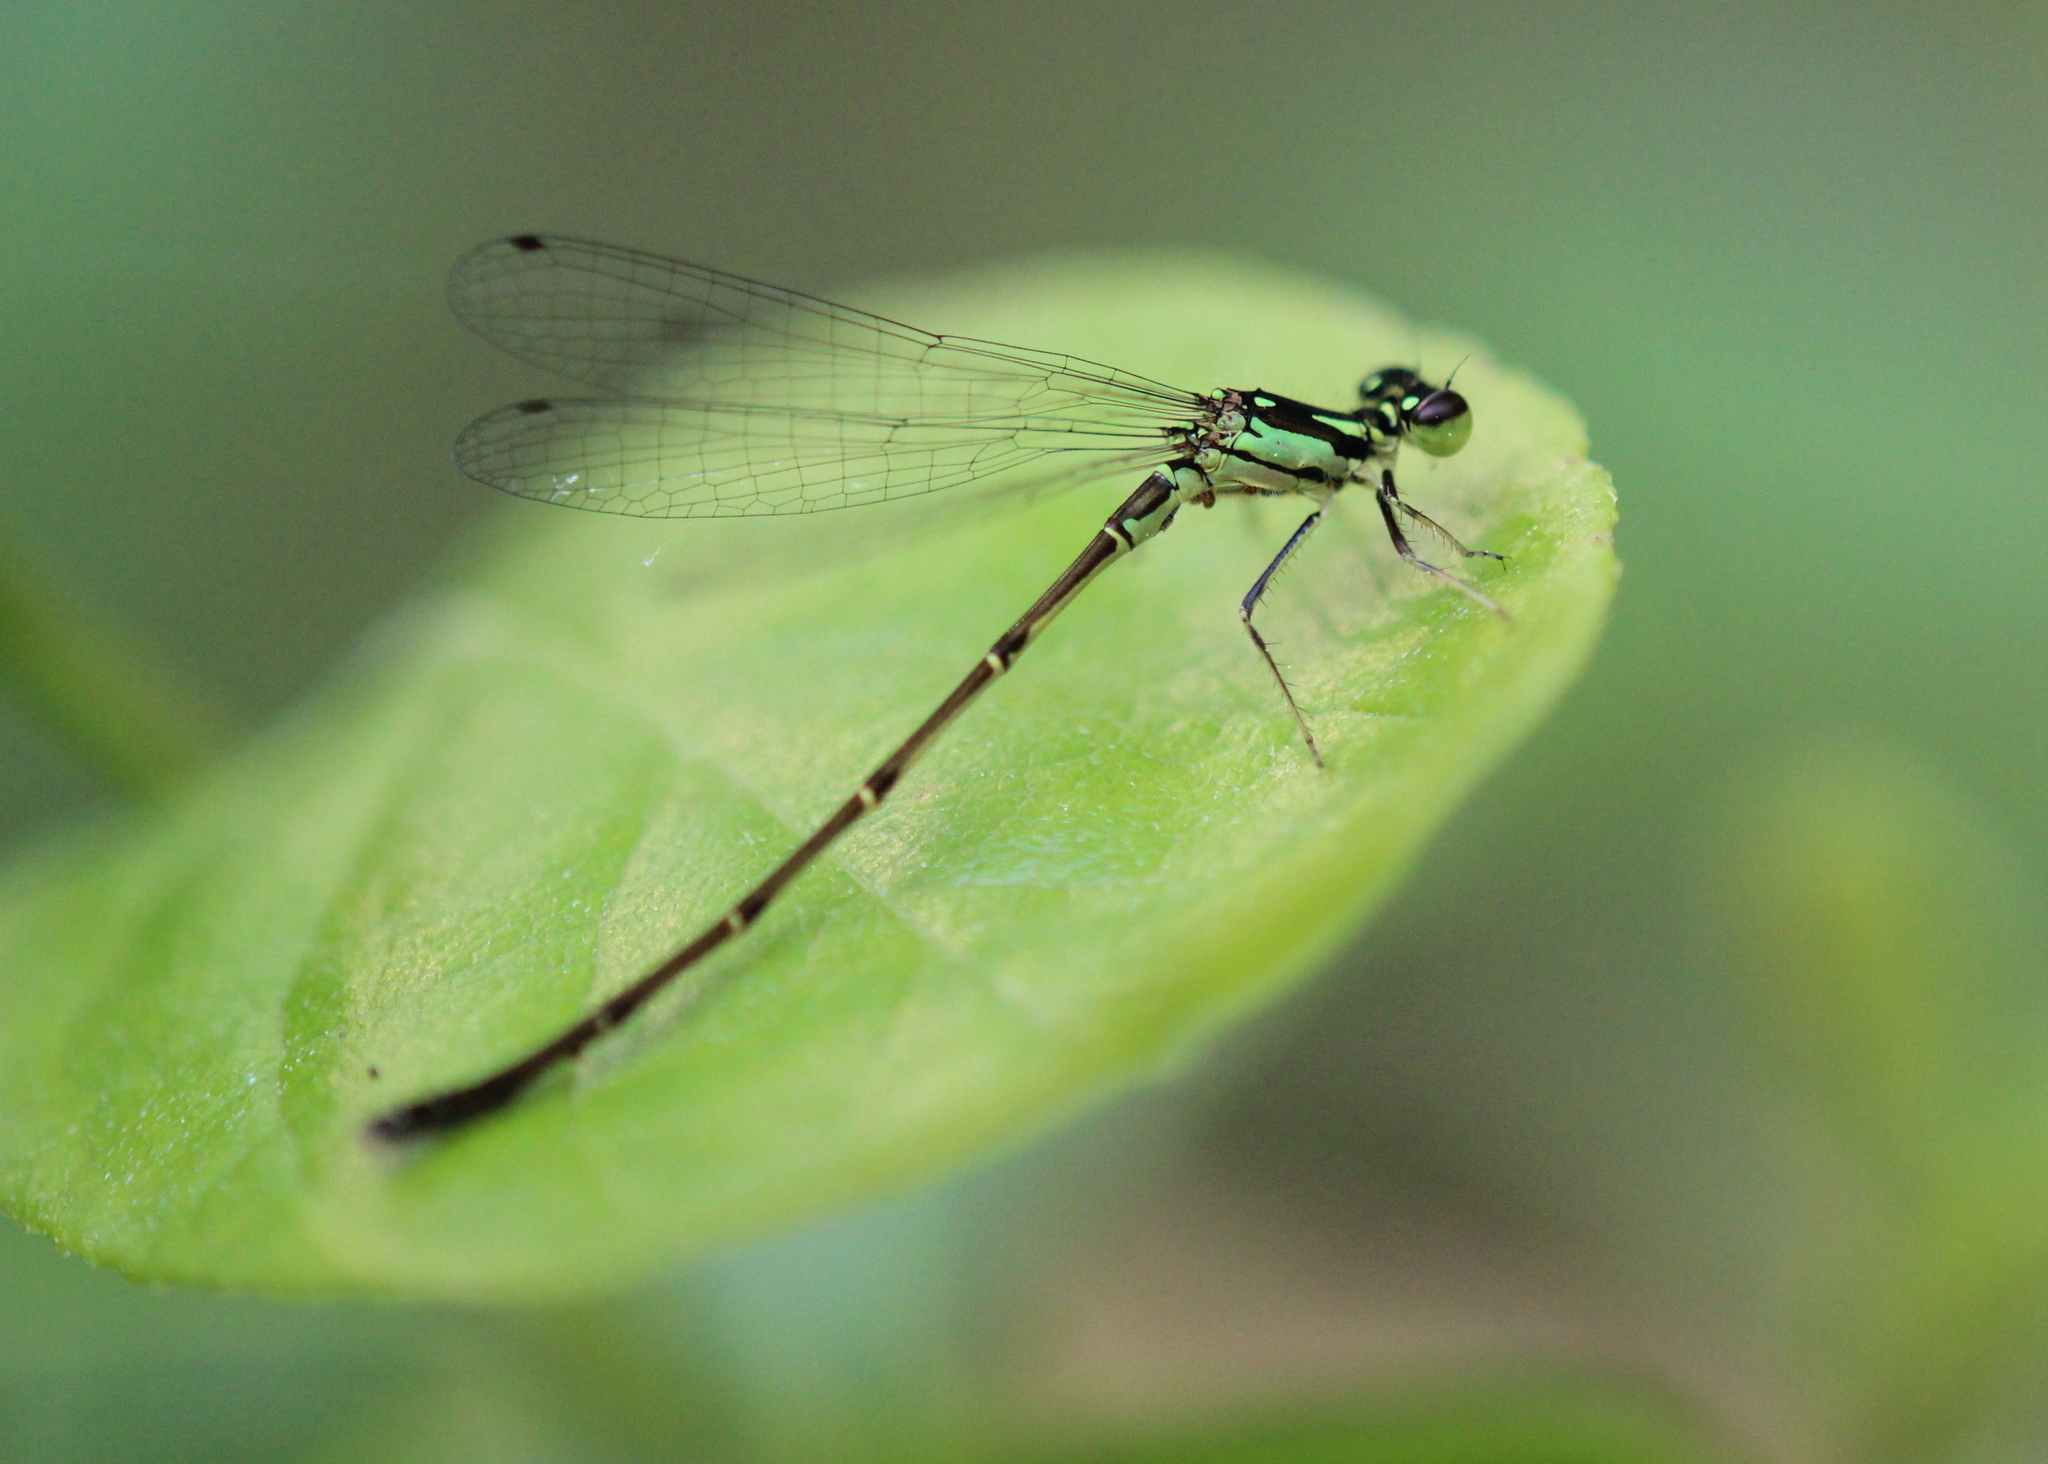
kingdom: Animalia
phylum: Arthropoda
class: Insecta
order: Odonata
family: Coenagrionidae
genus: Ischnura
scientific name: Ischnura posita
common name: Fragile forktail
